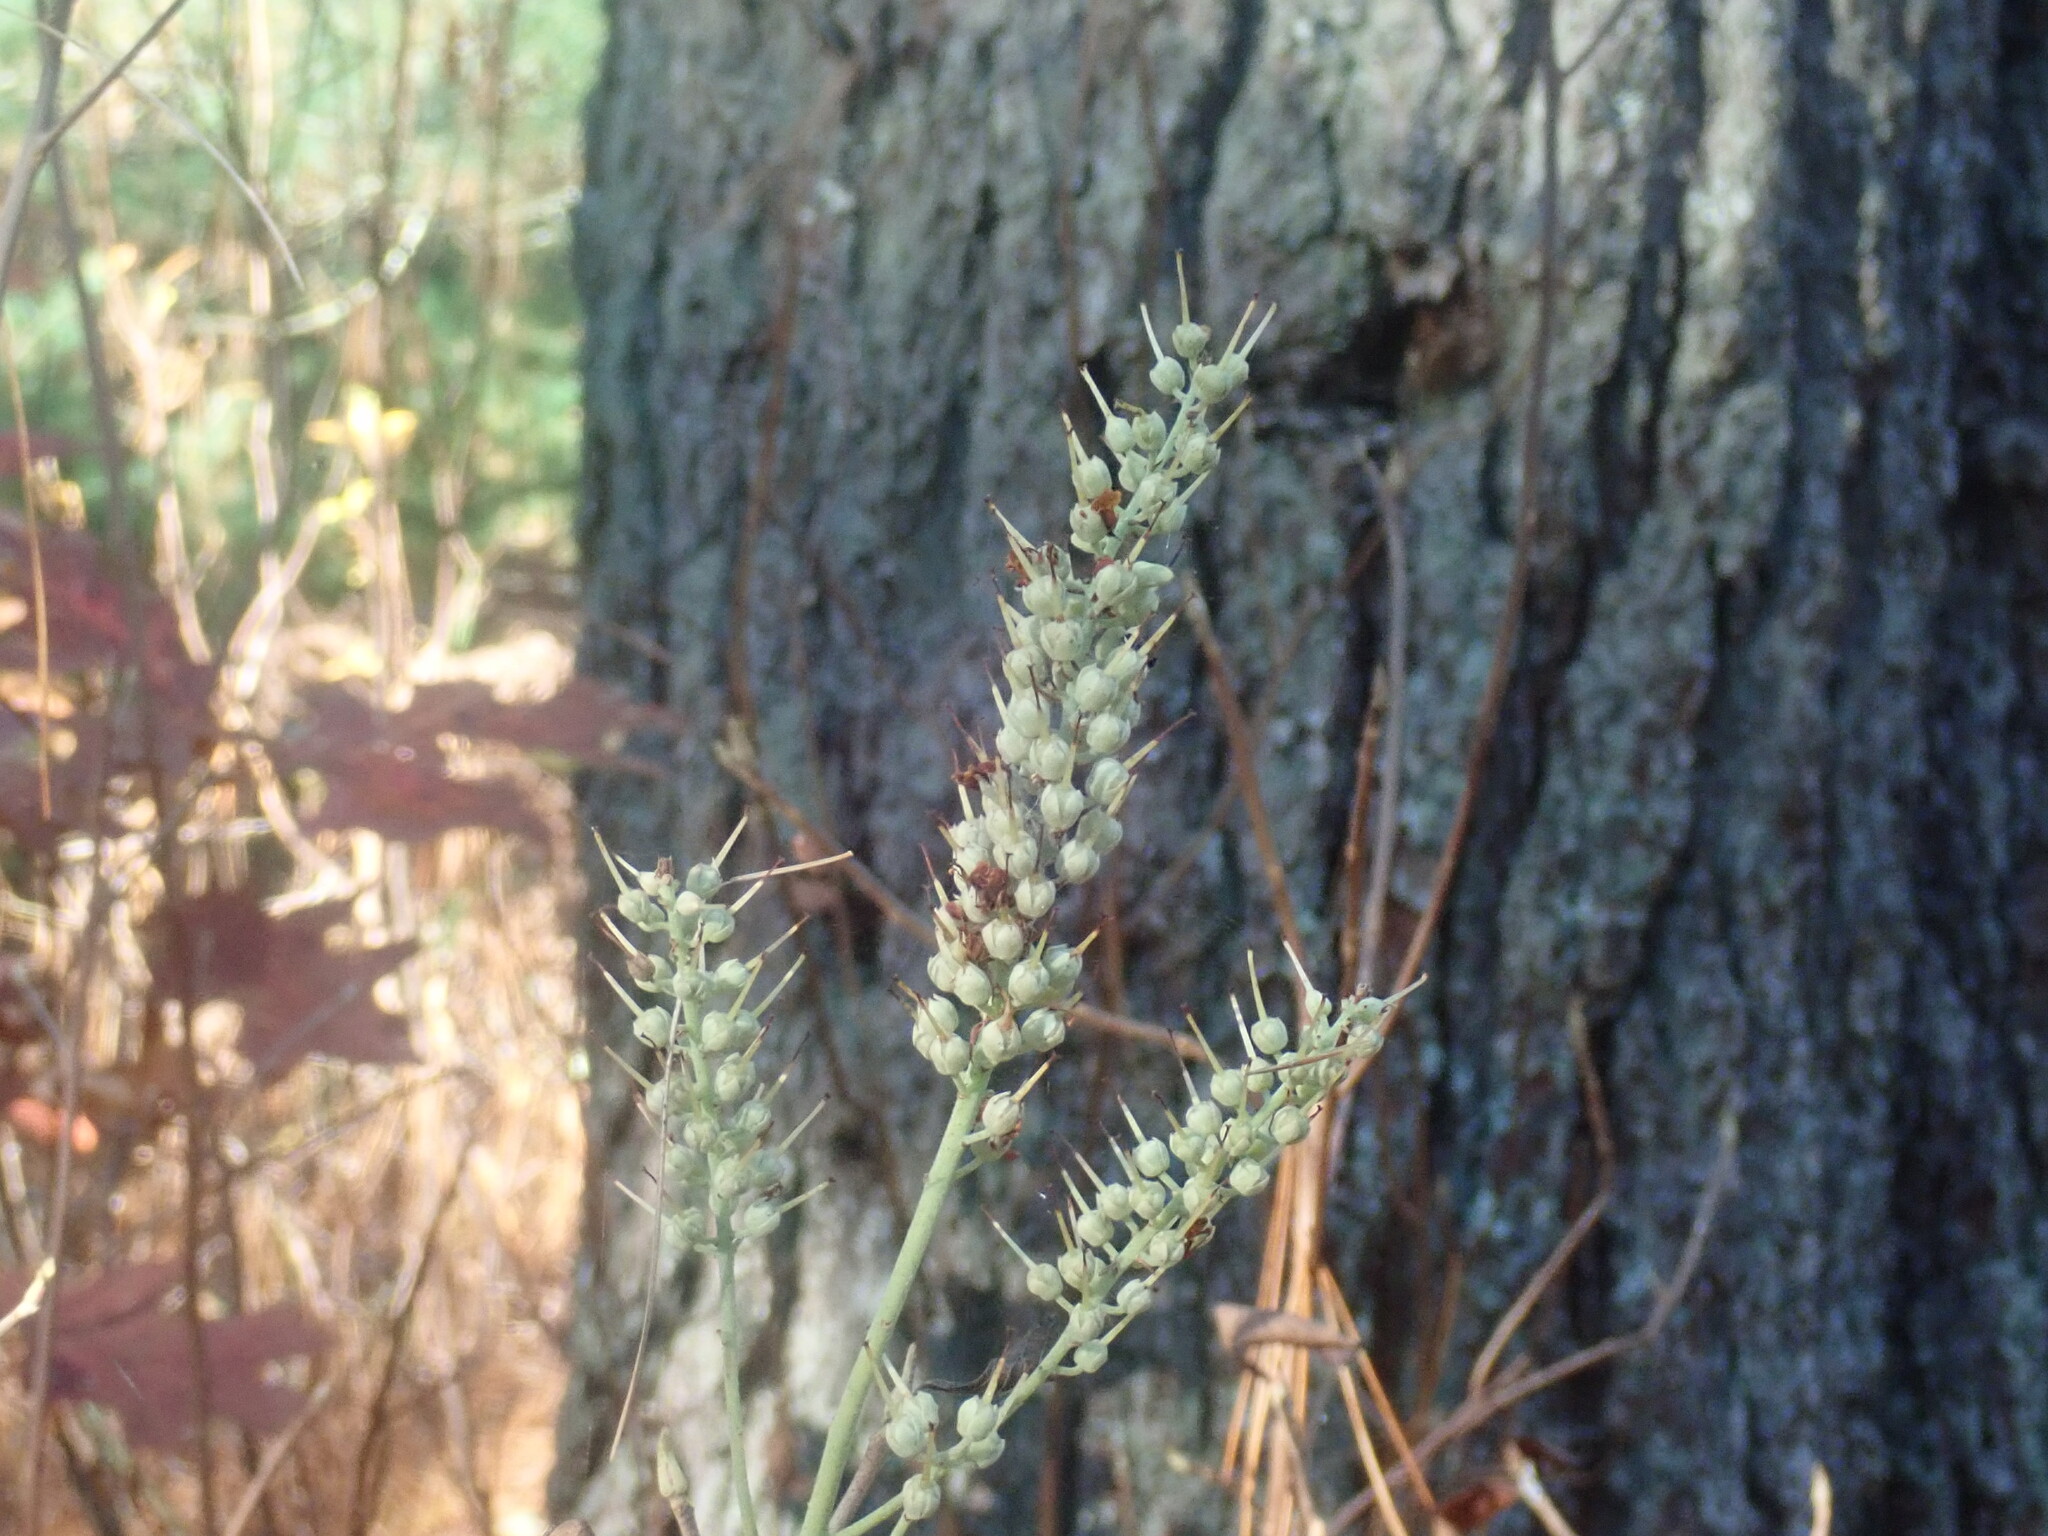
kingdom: Plantae
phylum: Tracheophyta
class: Magnoliopsida
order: Ericales
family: Clethraceae
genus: Clethra
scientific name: Clethra alnifolia
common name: Sweet pepperbush
